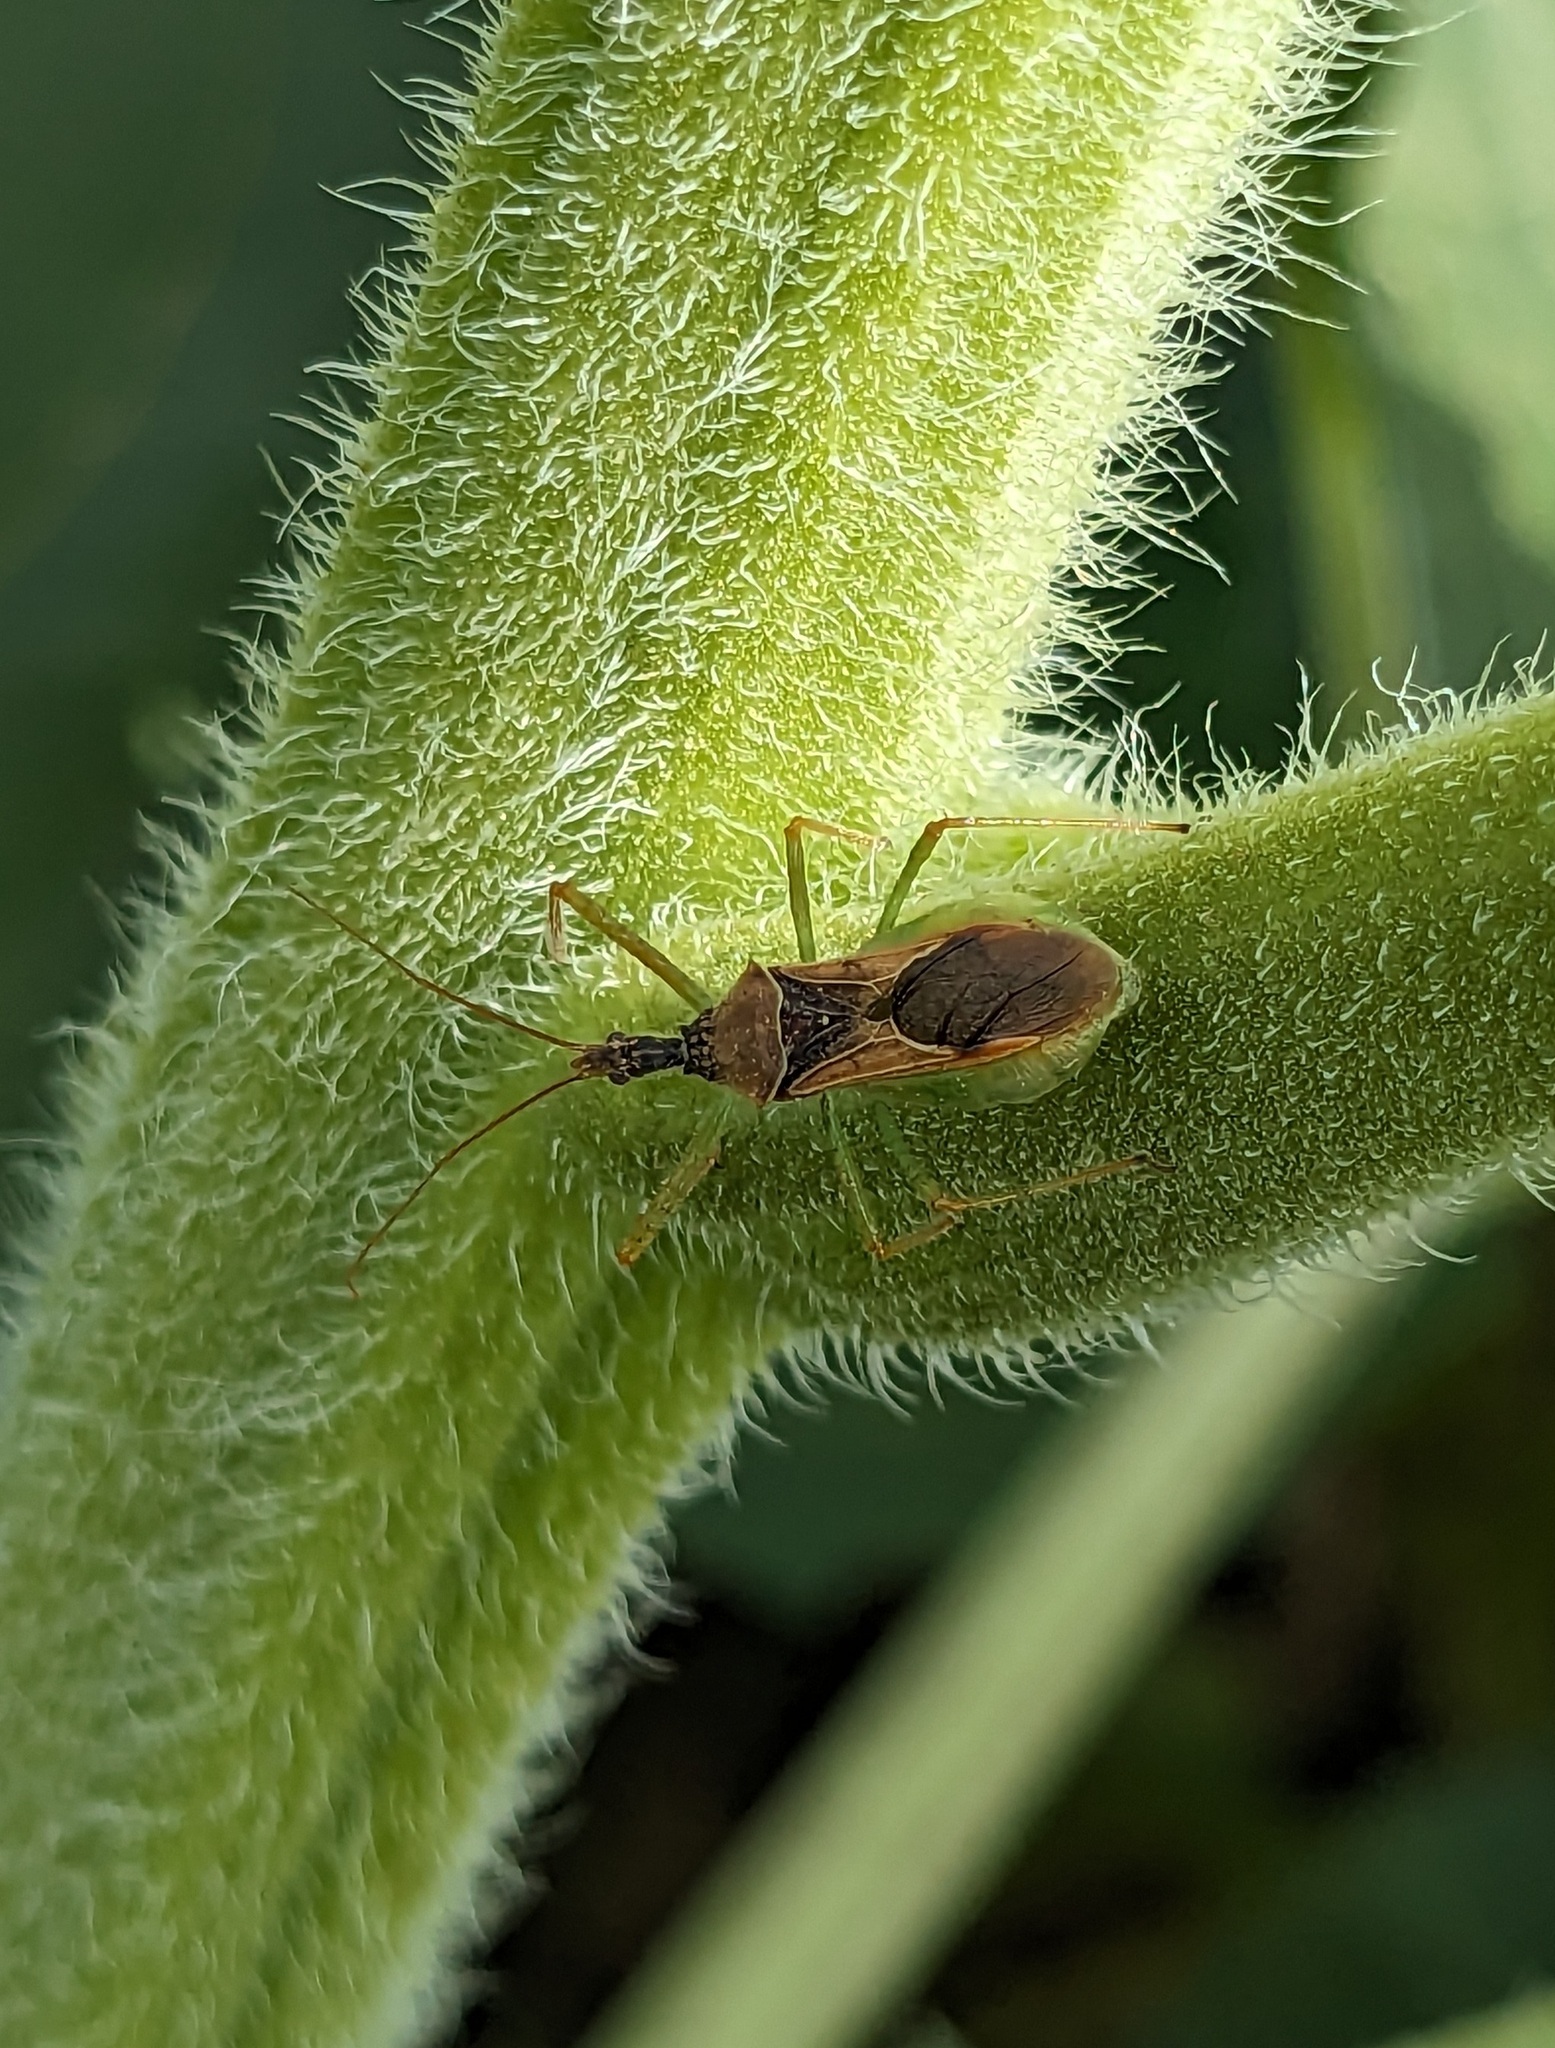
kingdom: Animalia
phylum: Arthropoda
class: Insecta
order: Hemiptera
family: Reduviidae
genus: Zelus
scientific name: Zelus renardii
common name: Assassin bug
